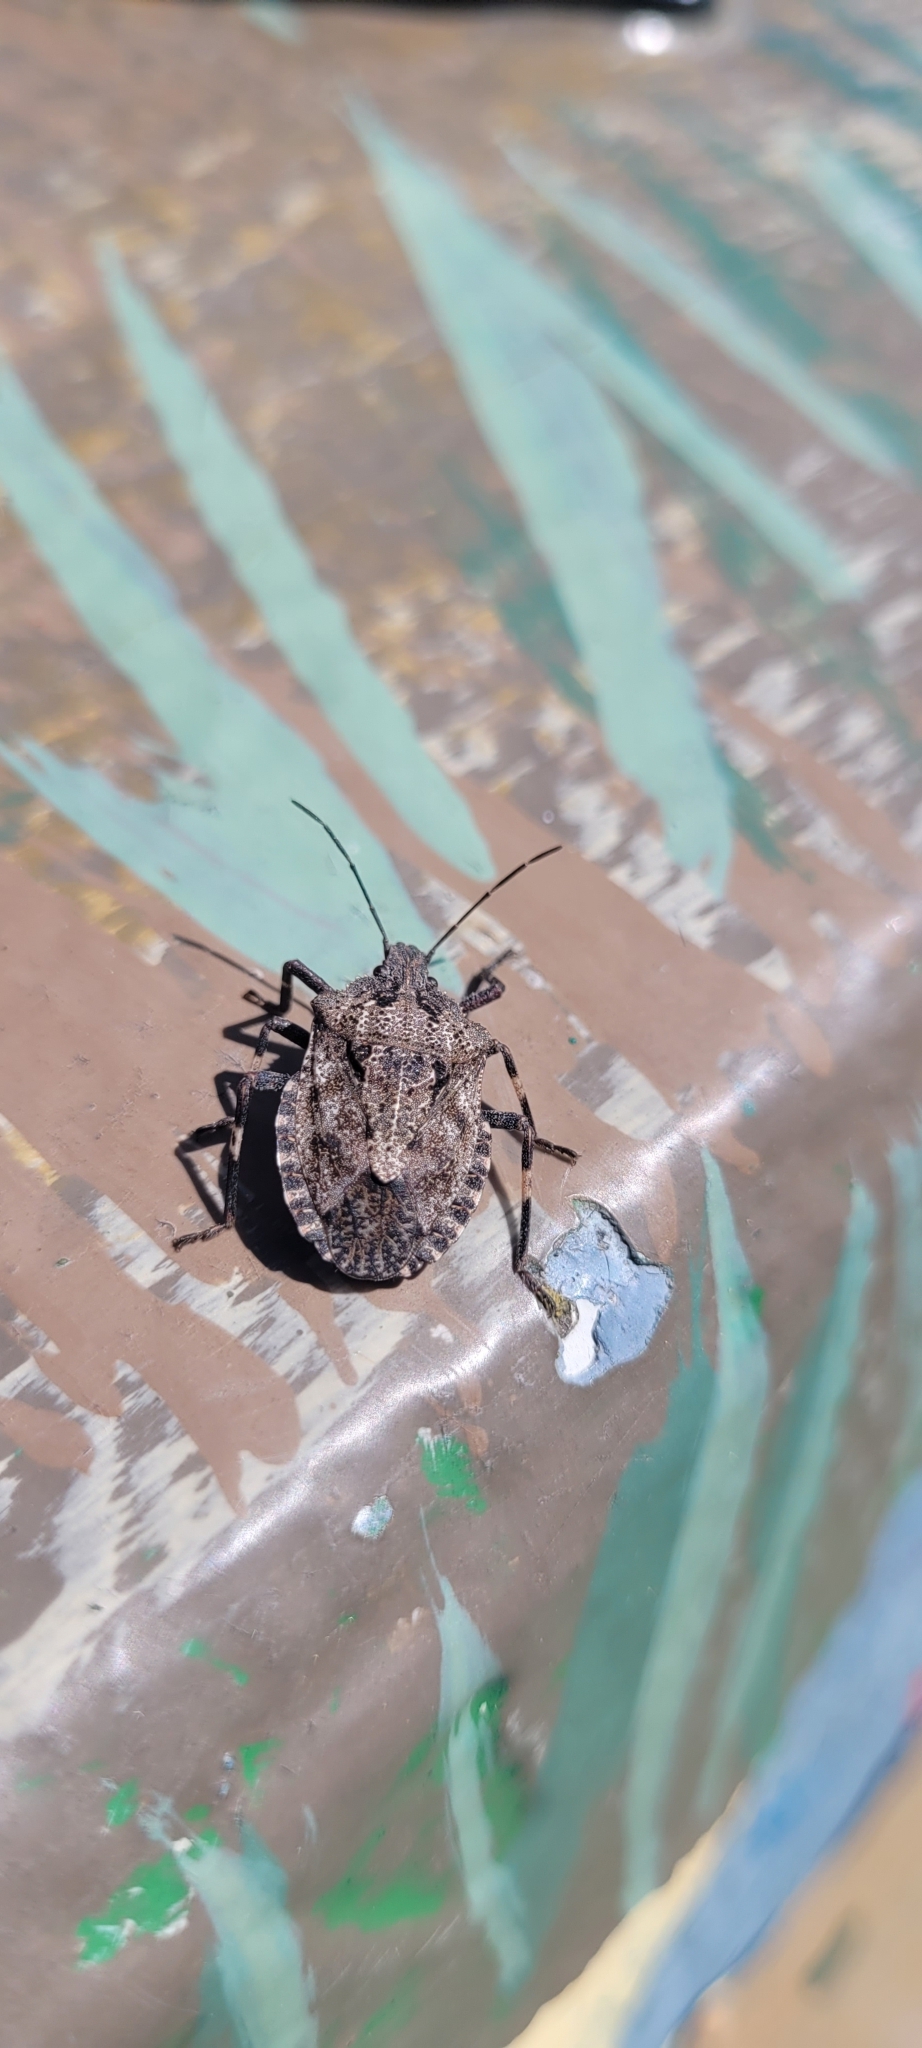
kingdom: Animalia
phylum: Arthropoda
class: Insecta
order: Hemiptera
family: Pentatomidae
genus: Brochymena
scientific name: Brochymena affinis
